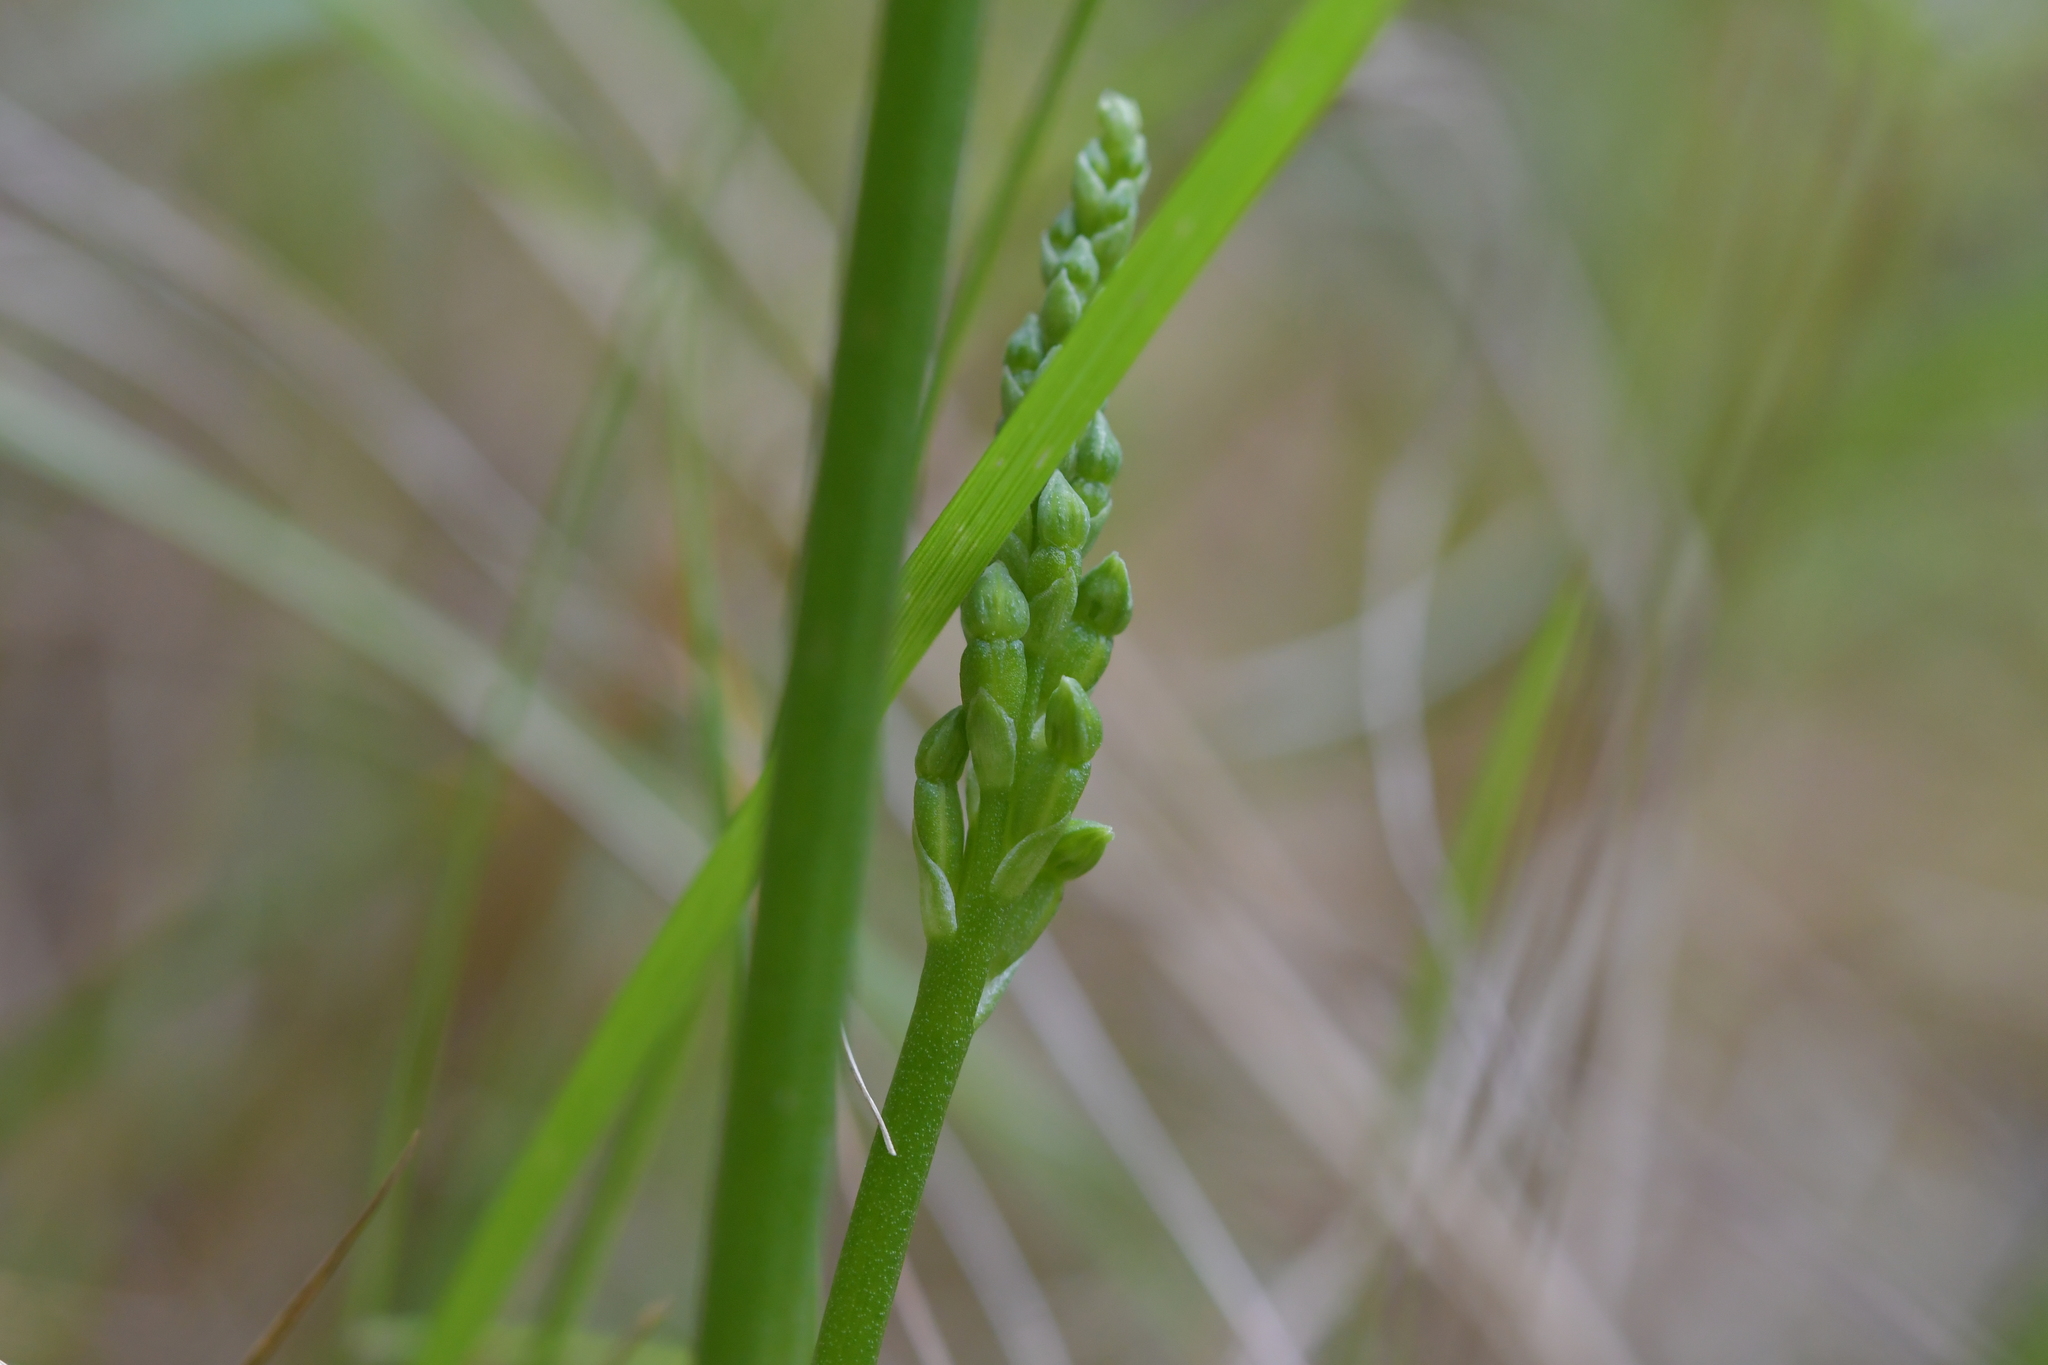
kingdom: Plantae
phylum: Tracheophyta
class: Liliopsida
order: Asparagales
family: Orchidaceae
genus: Microtis
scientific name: Microtis unifolia
